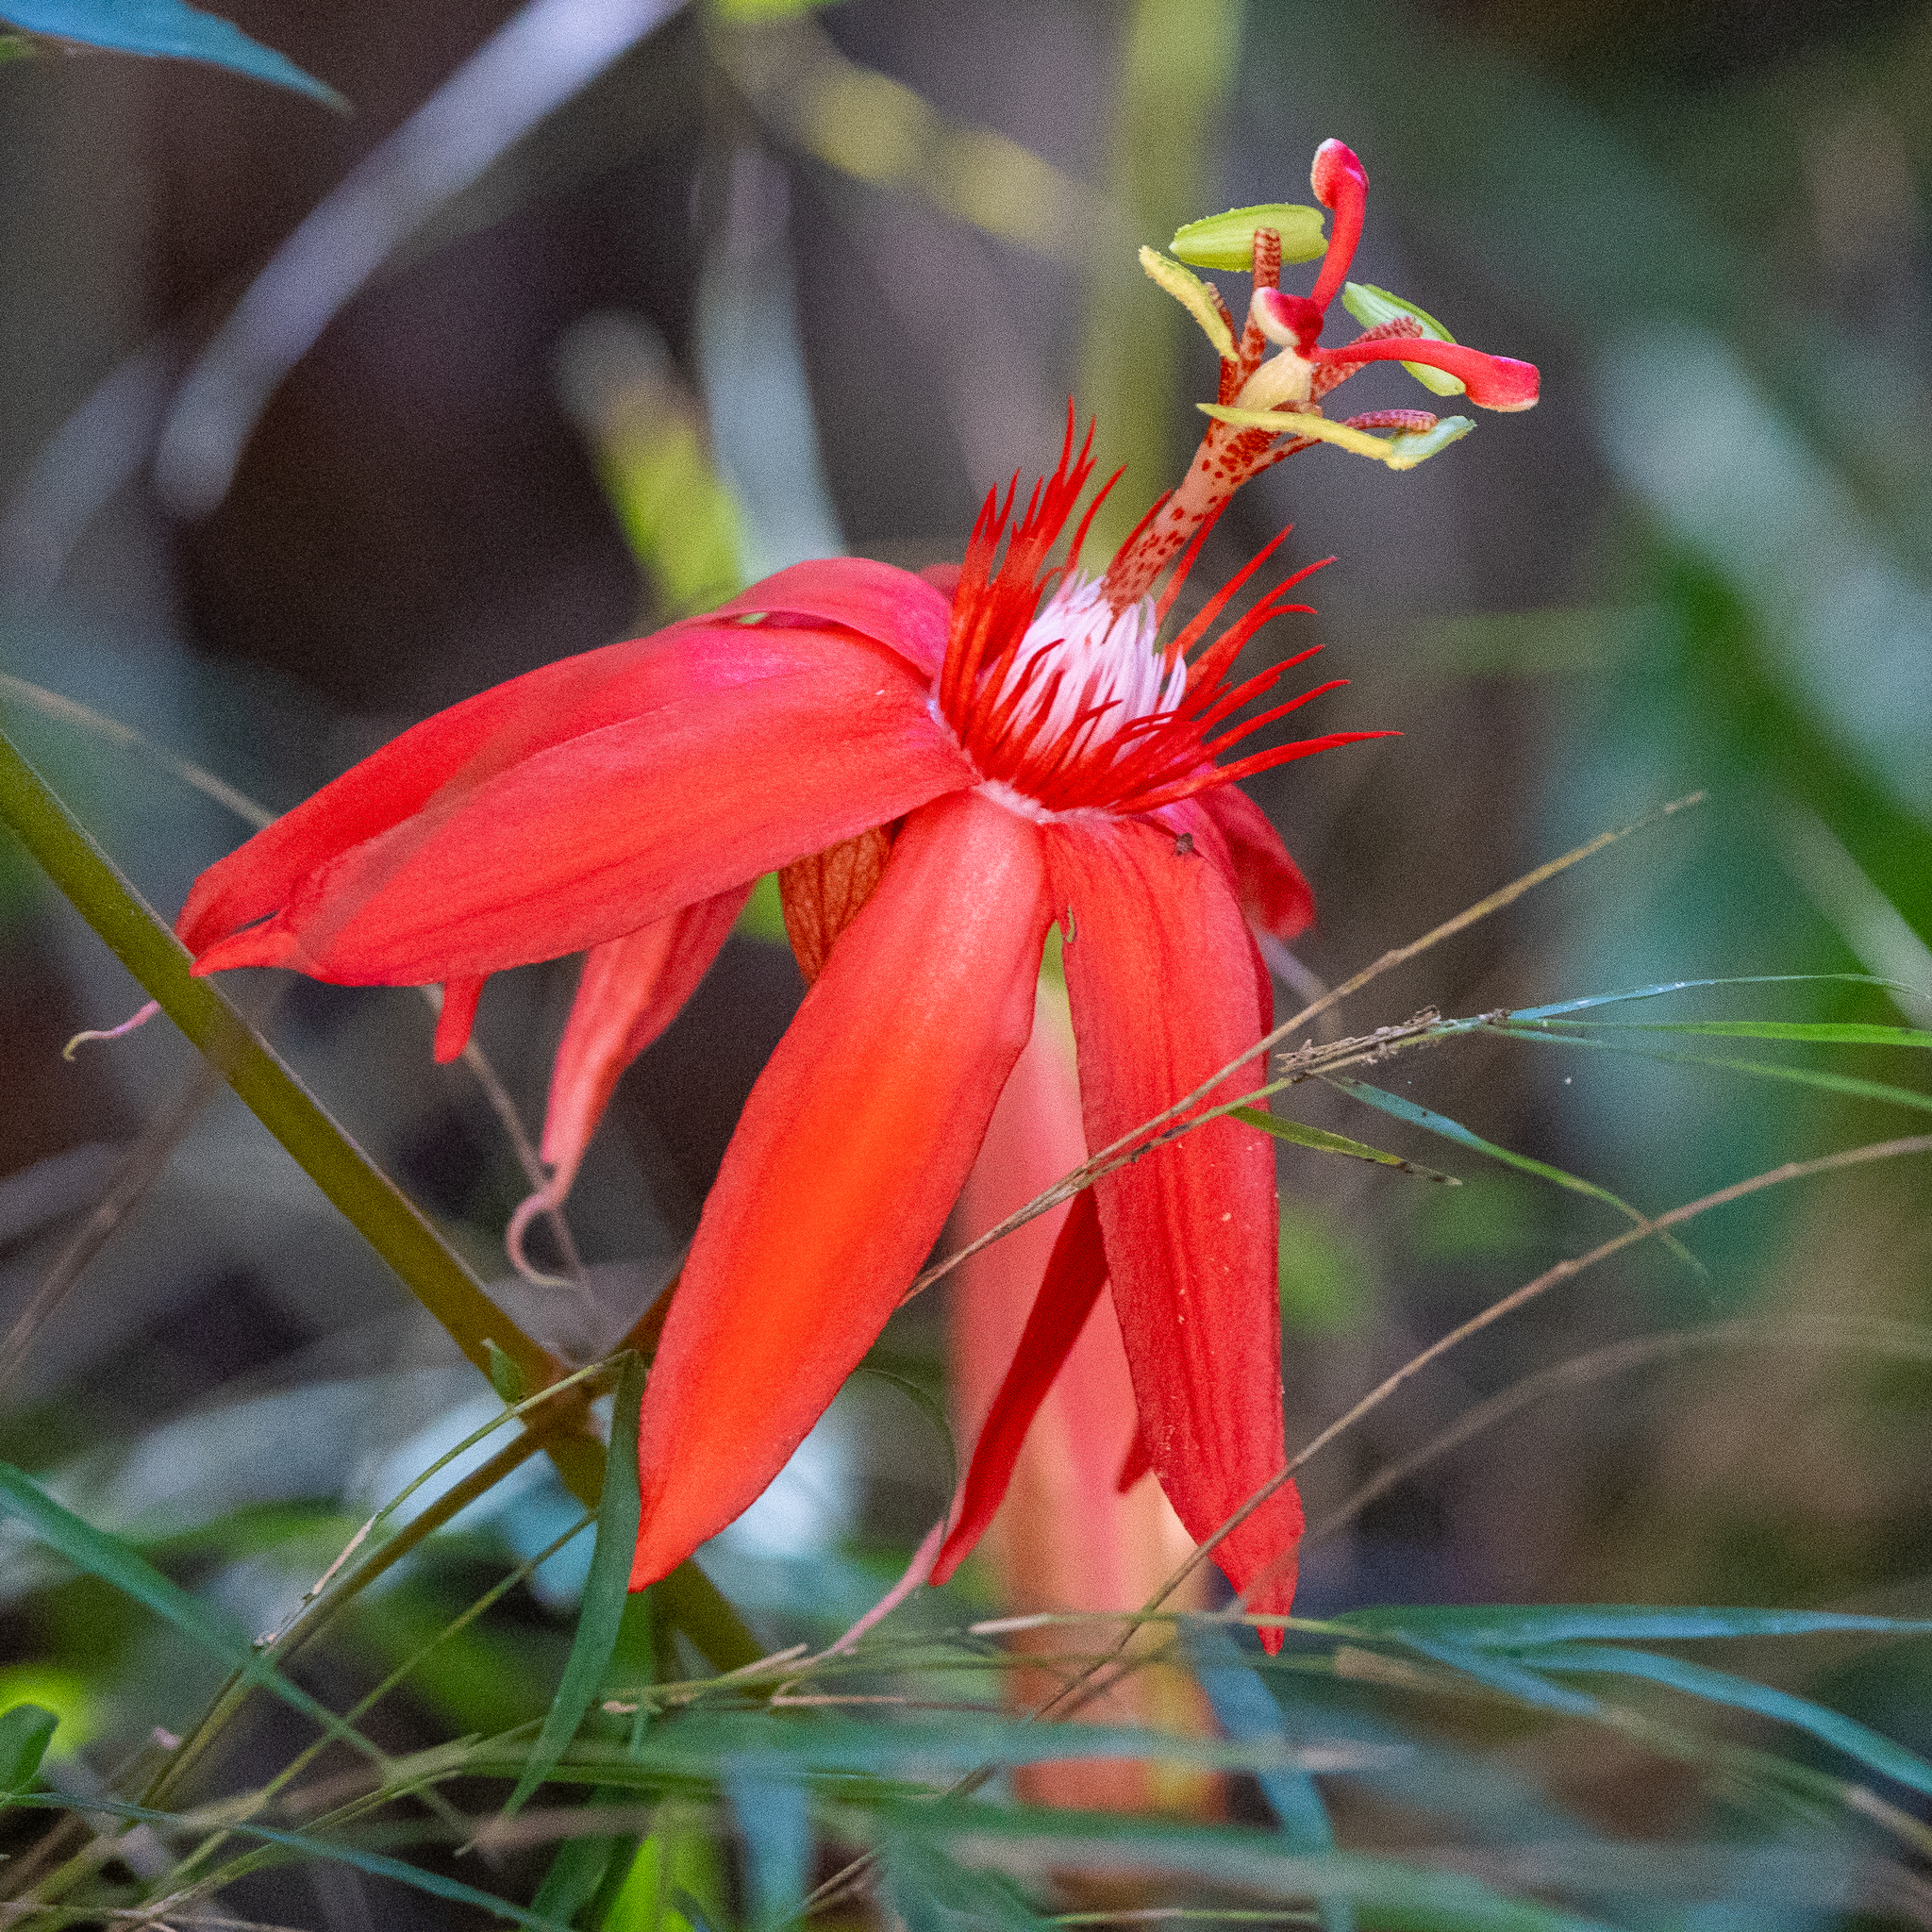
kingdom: Plantae
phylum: Tracheophyta
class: Magnoliopsida
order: Malpighiales
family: Passifloraceae
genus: Passiflora
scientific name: Passiflora vitifolia
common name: Perfumed passionflower
